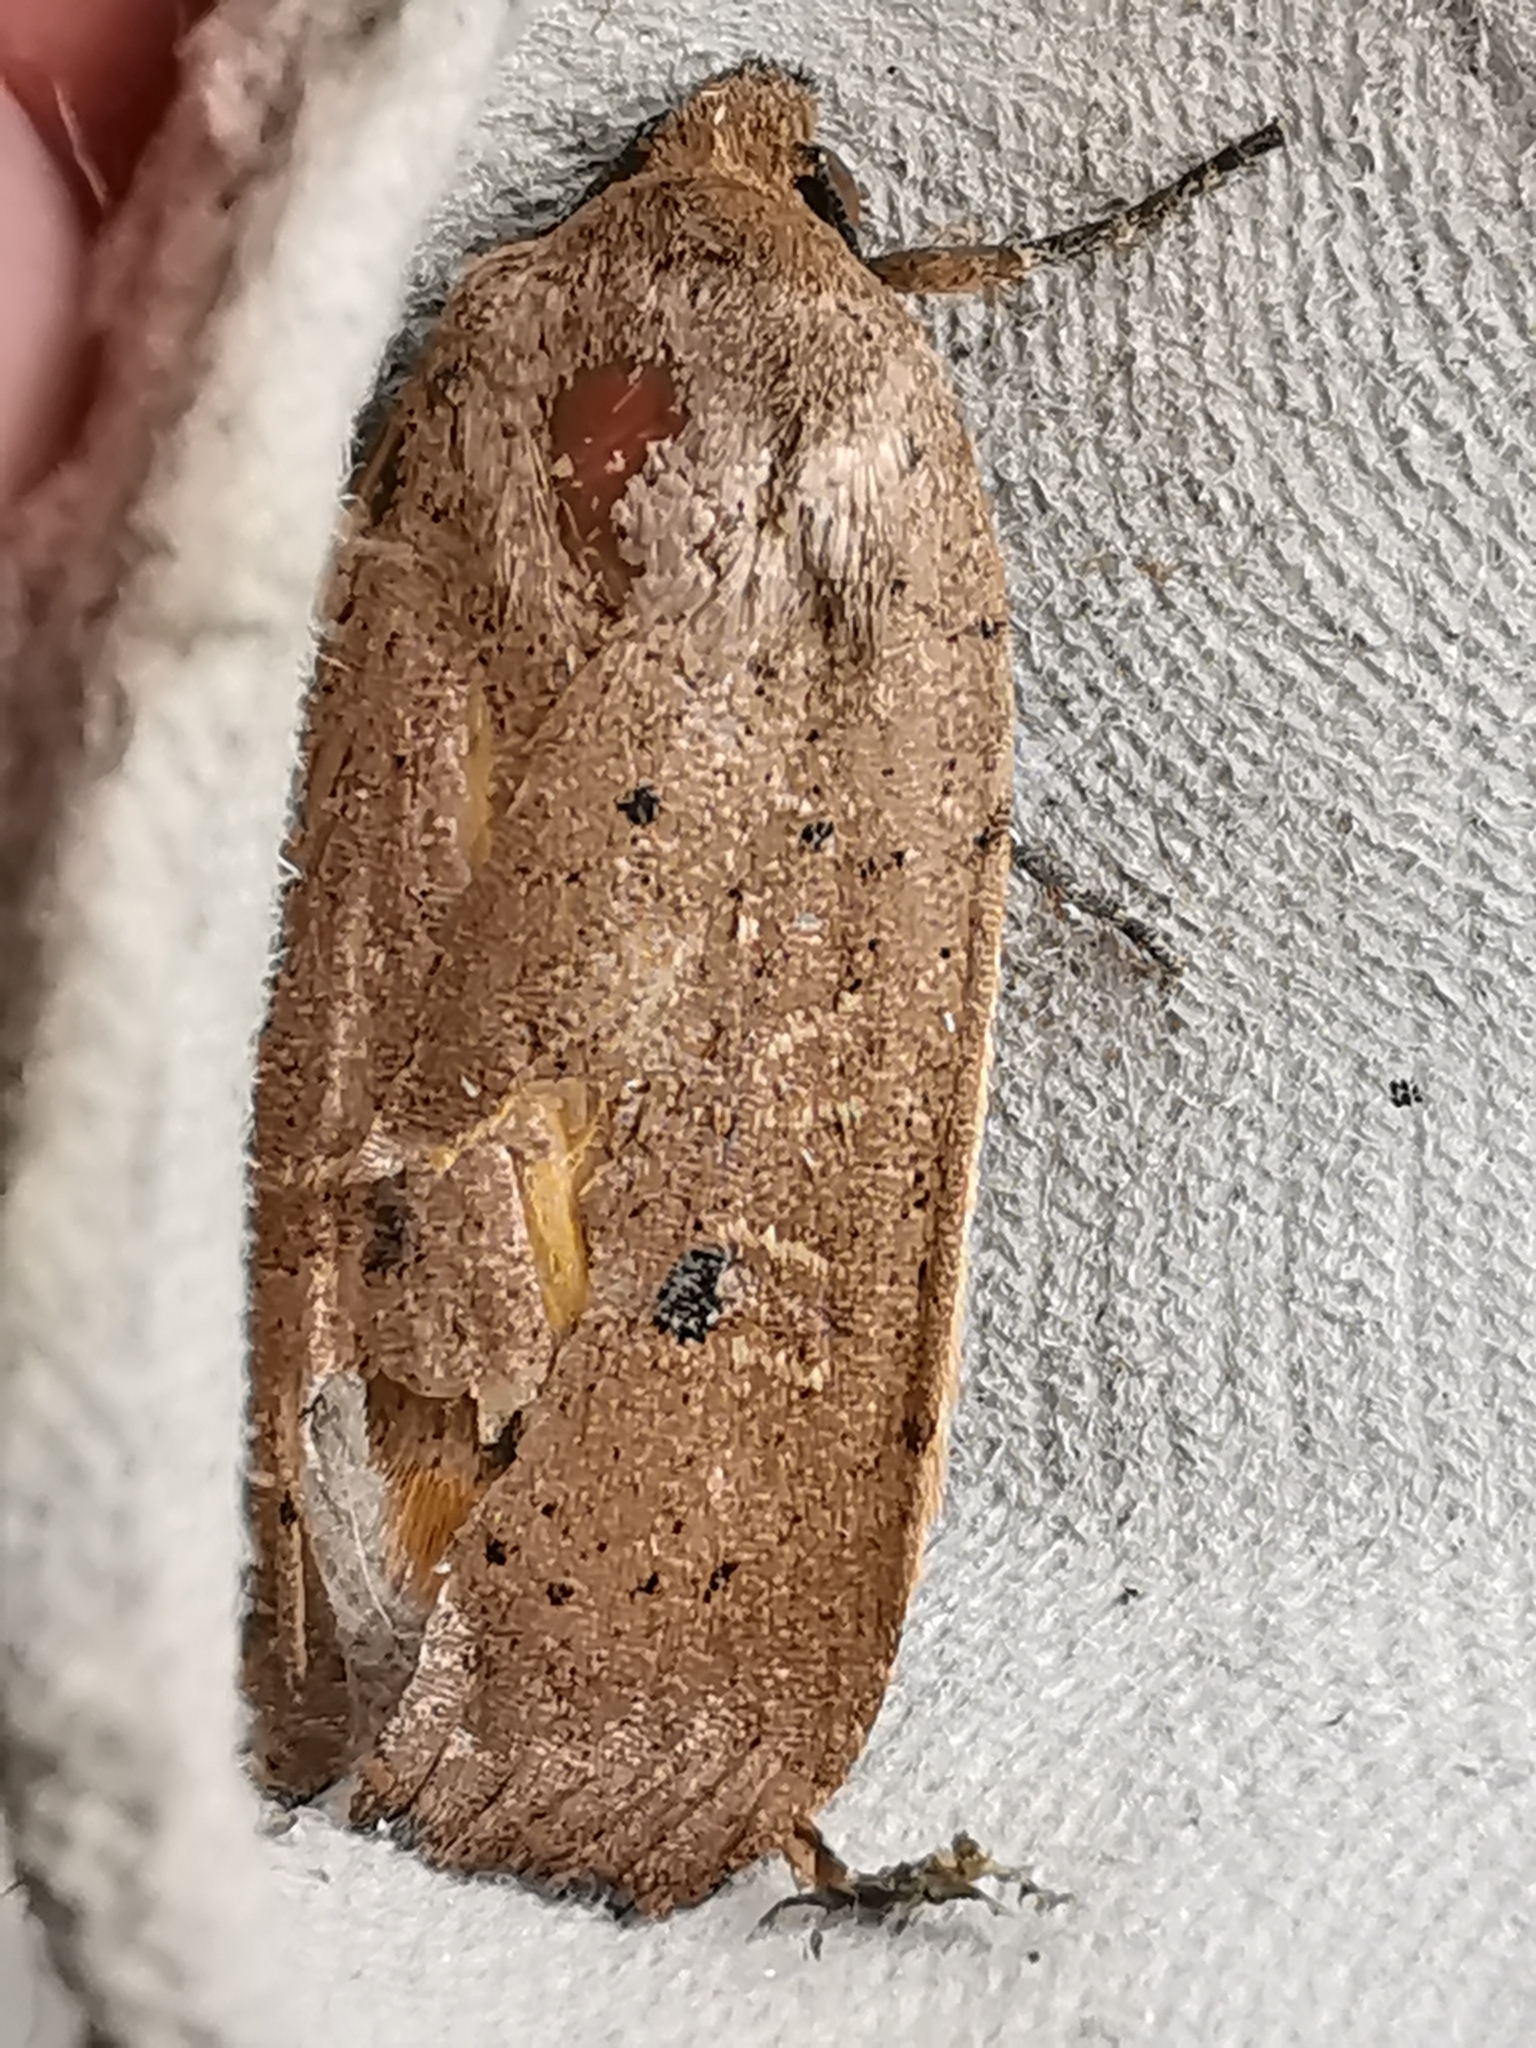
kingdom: Animalia
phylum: Arthropoda
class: Insecta
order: Lepidoptera
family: Noctuidae
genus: Noctua
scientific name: Noctua comes
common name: Lesser yellow underwing
